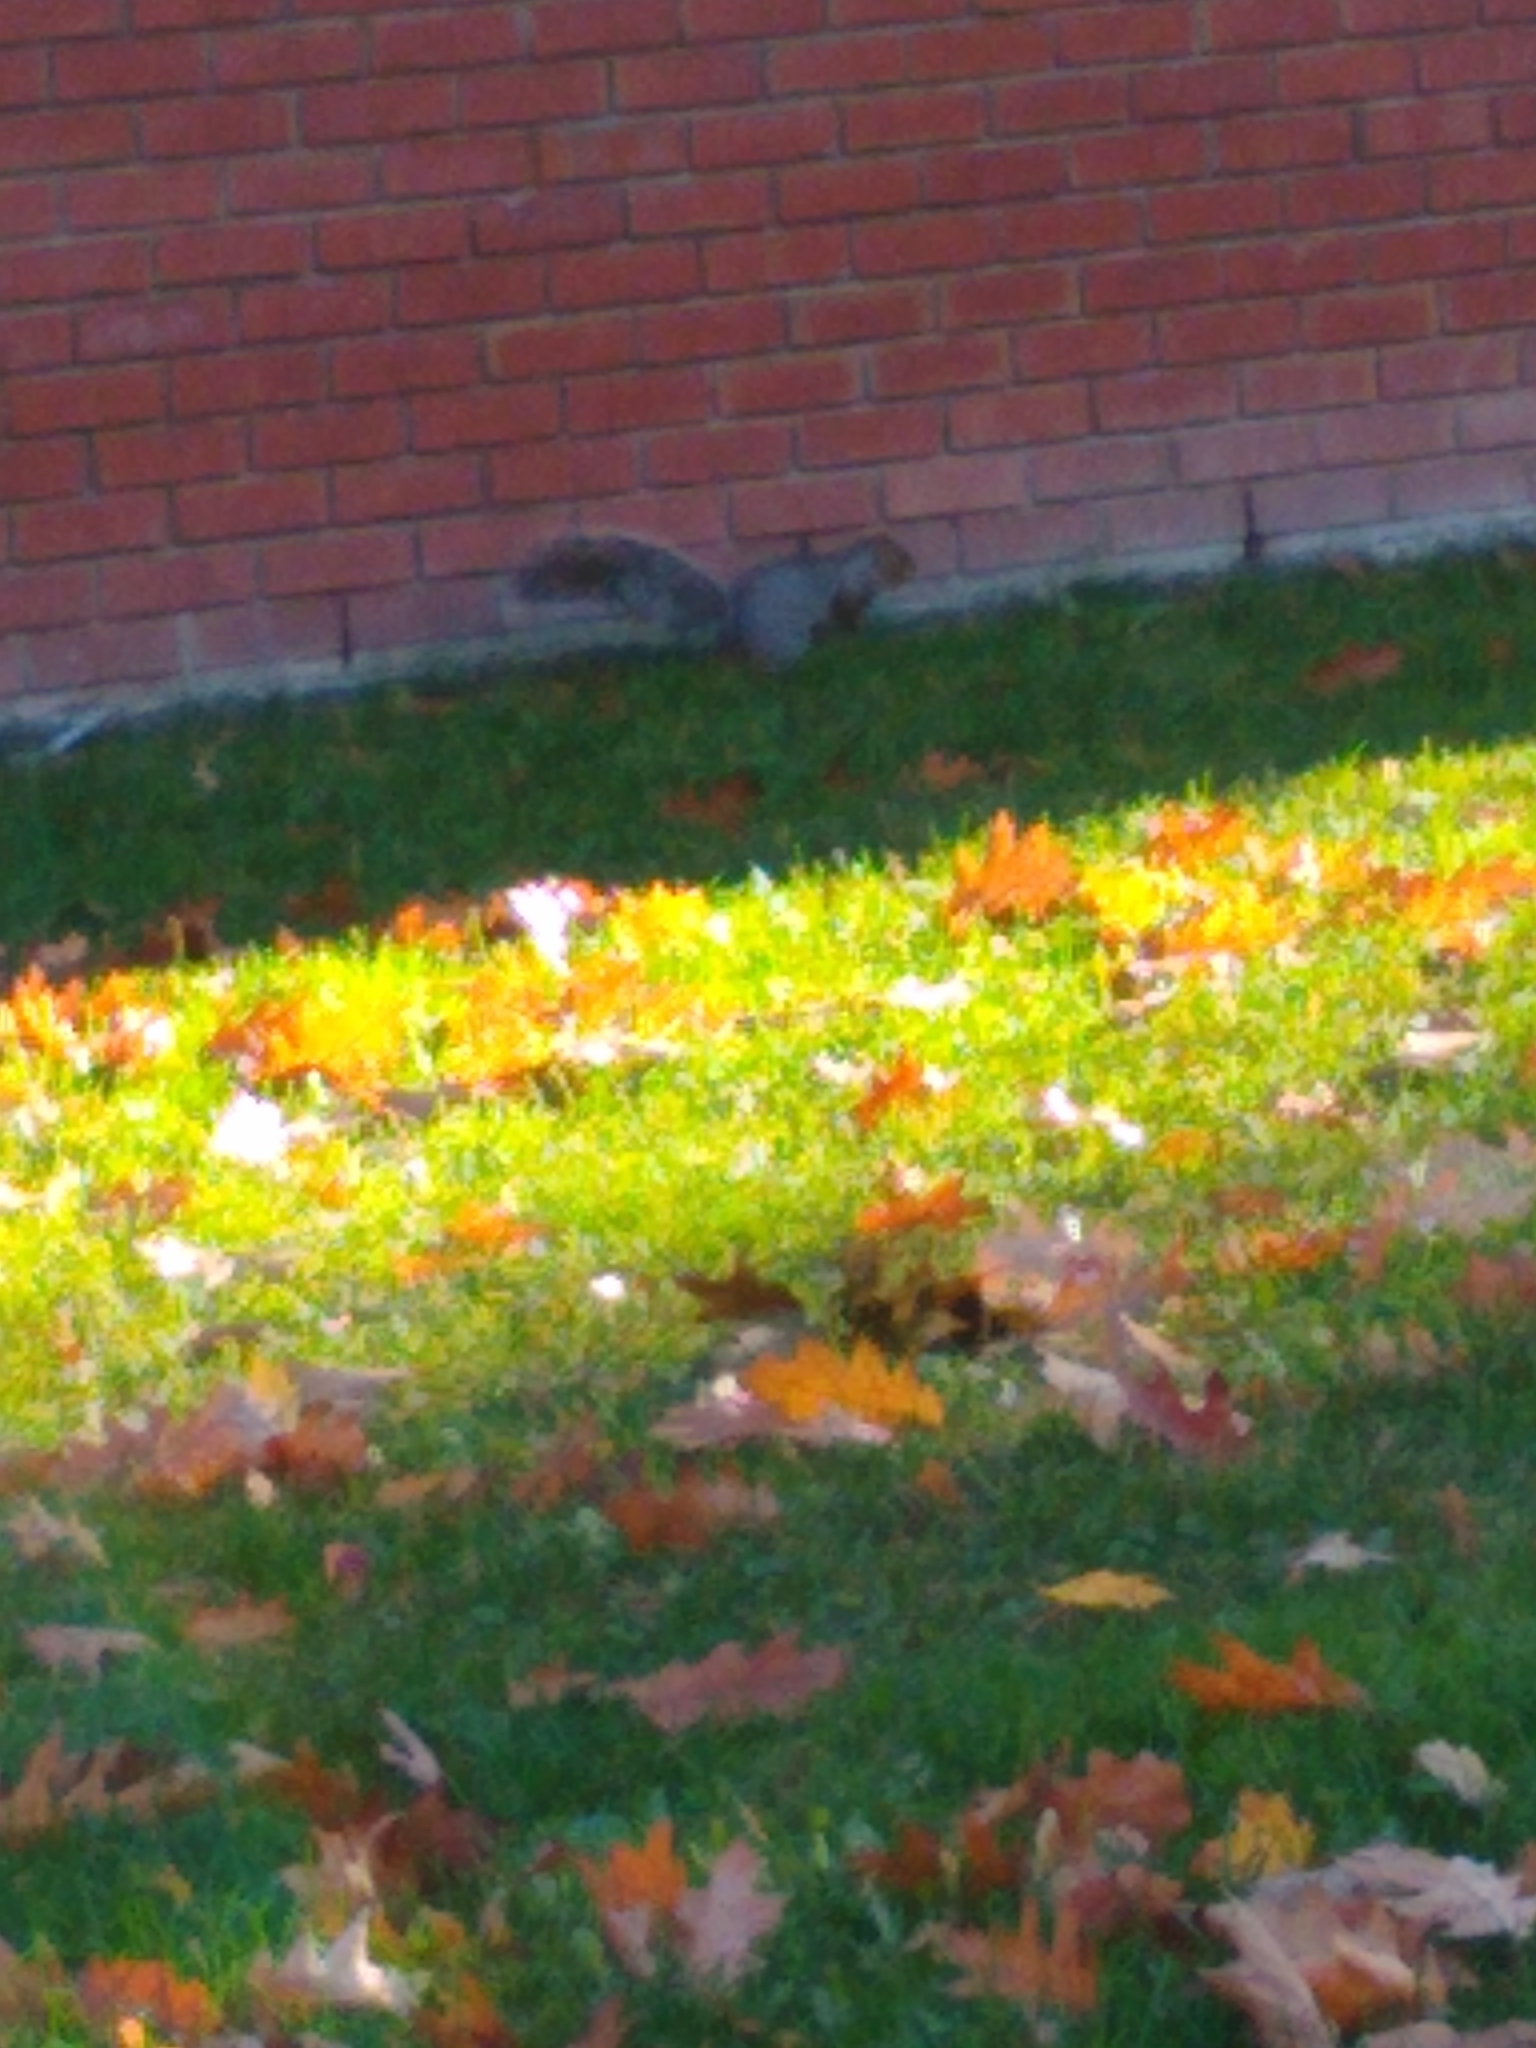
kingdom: Animalia
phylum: Chordata
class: Mammalia
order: Rodentia
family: Sciuridae
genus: Sciurus
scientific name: Sciurus carolinensis
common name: Eastern gray squirrel
